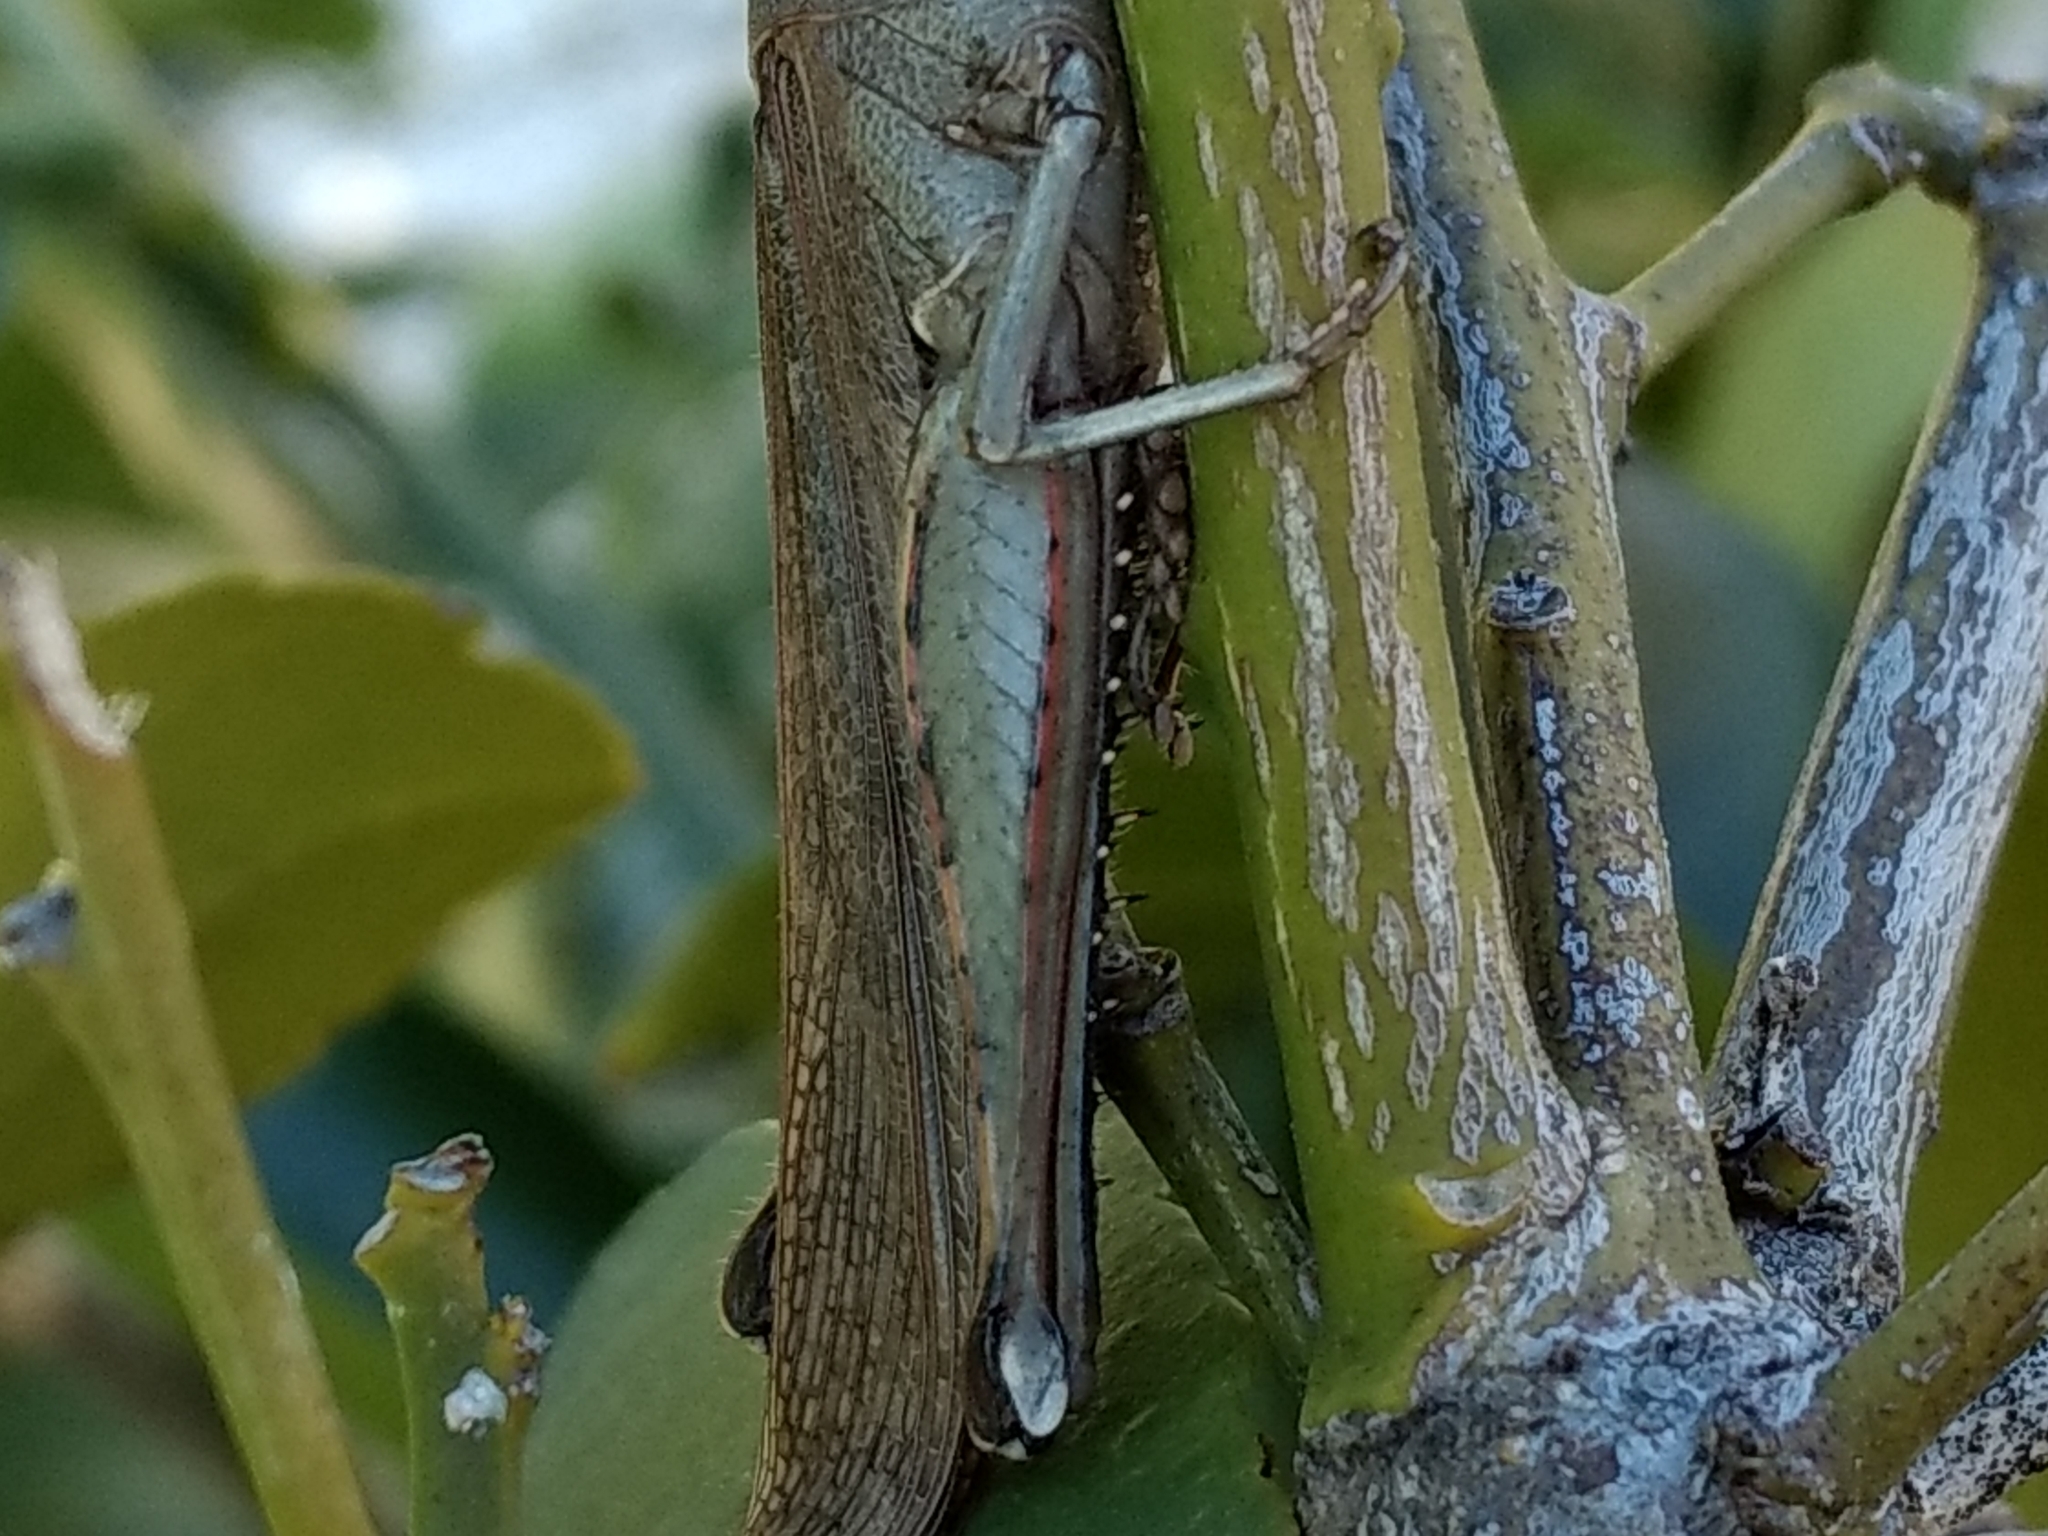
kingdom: Animalia
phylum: Arthropoda
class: Insecta
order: Orthoptera
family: Acrididae
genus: Schistocerca
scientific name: Schistocerca nitens
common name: Vagrant grasshopper
